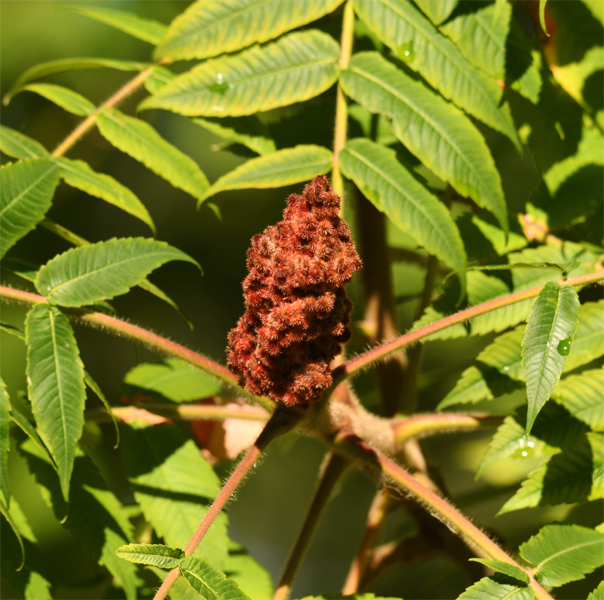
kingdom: Plantae
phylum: Tracheophyta
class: Magnoliopsida
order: Sapindales
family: Anacardiaceae
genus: Rhus
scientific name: Rhus typhina
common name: Staghorn sumac
